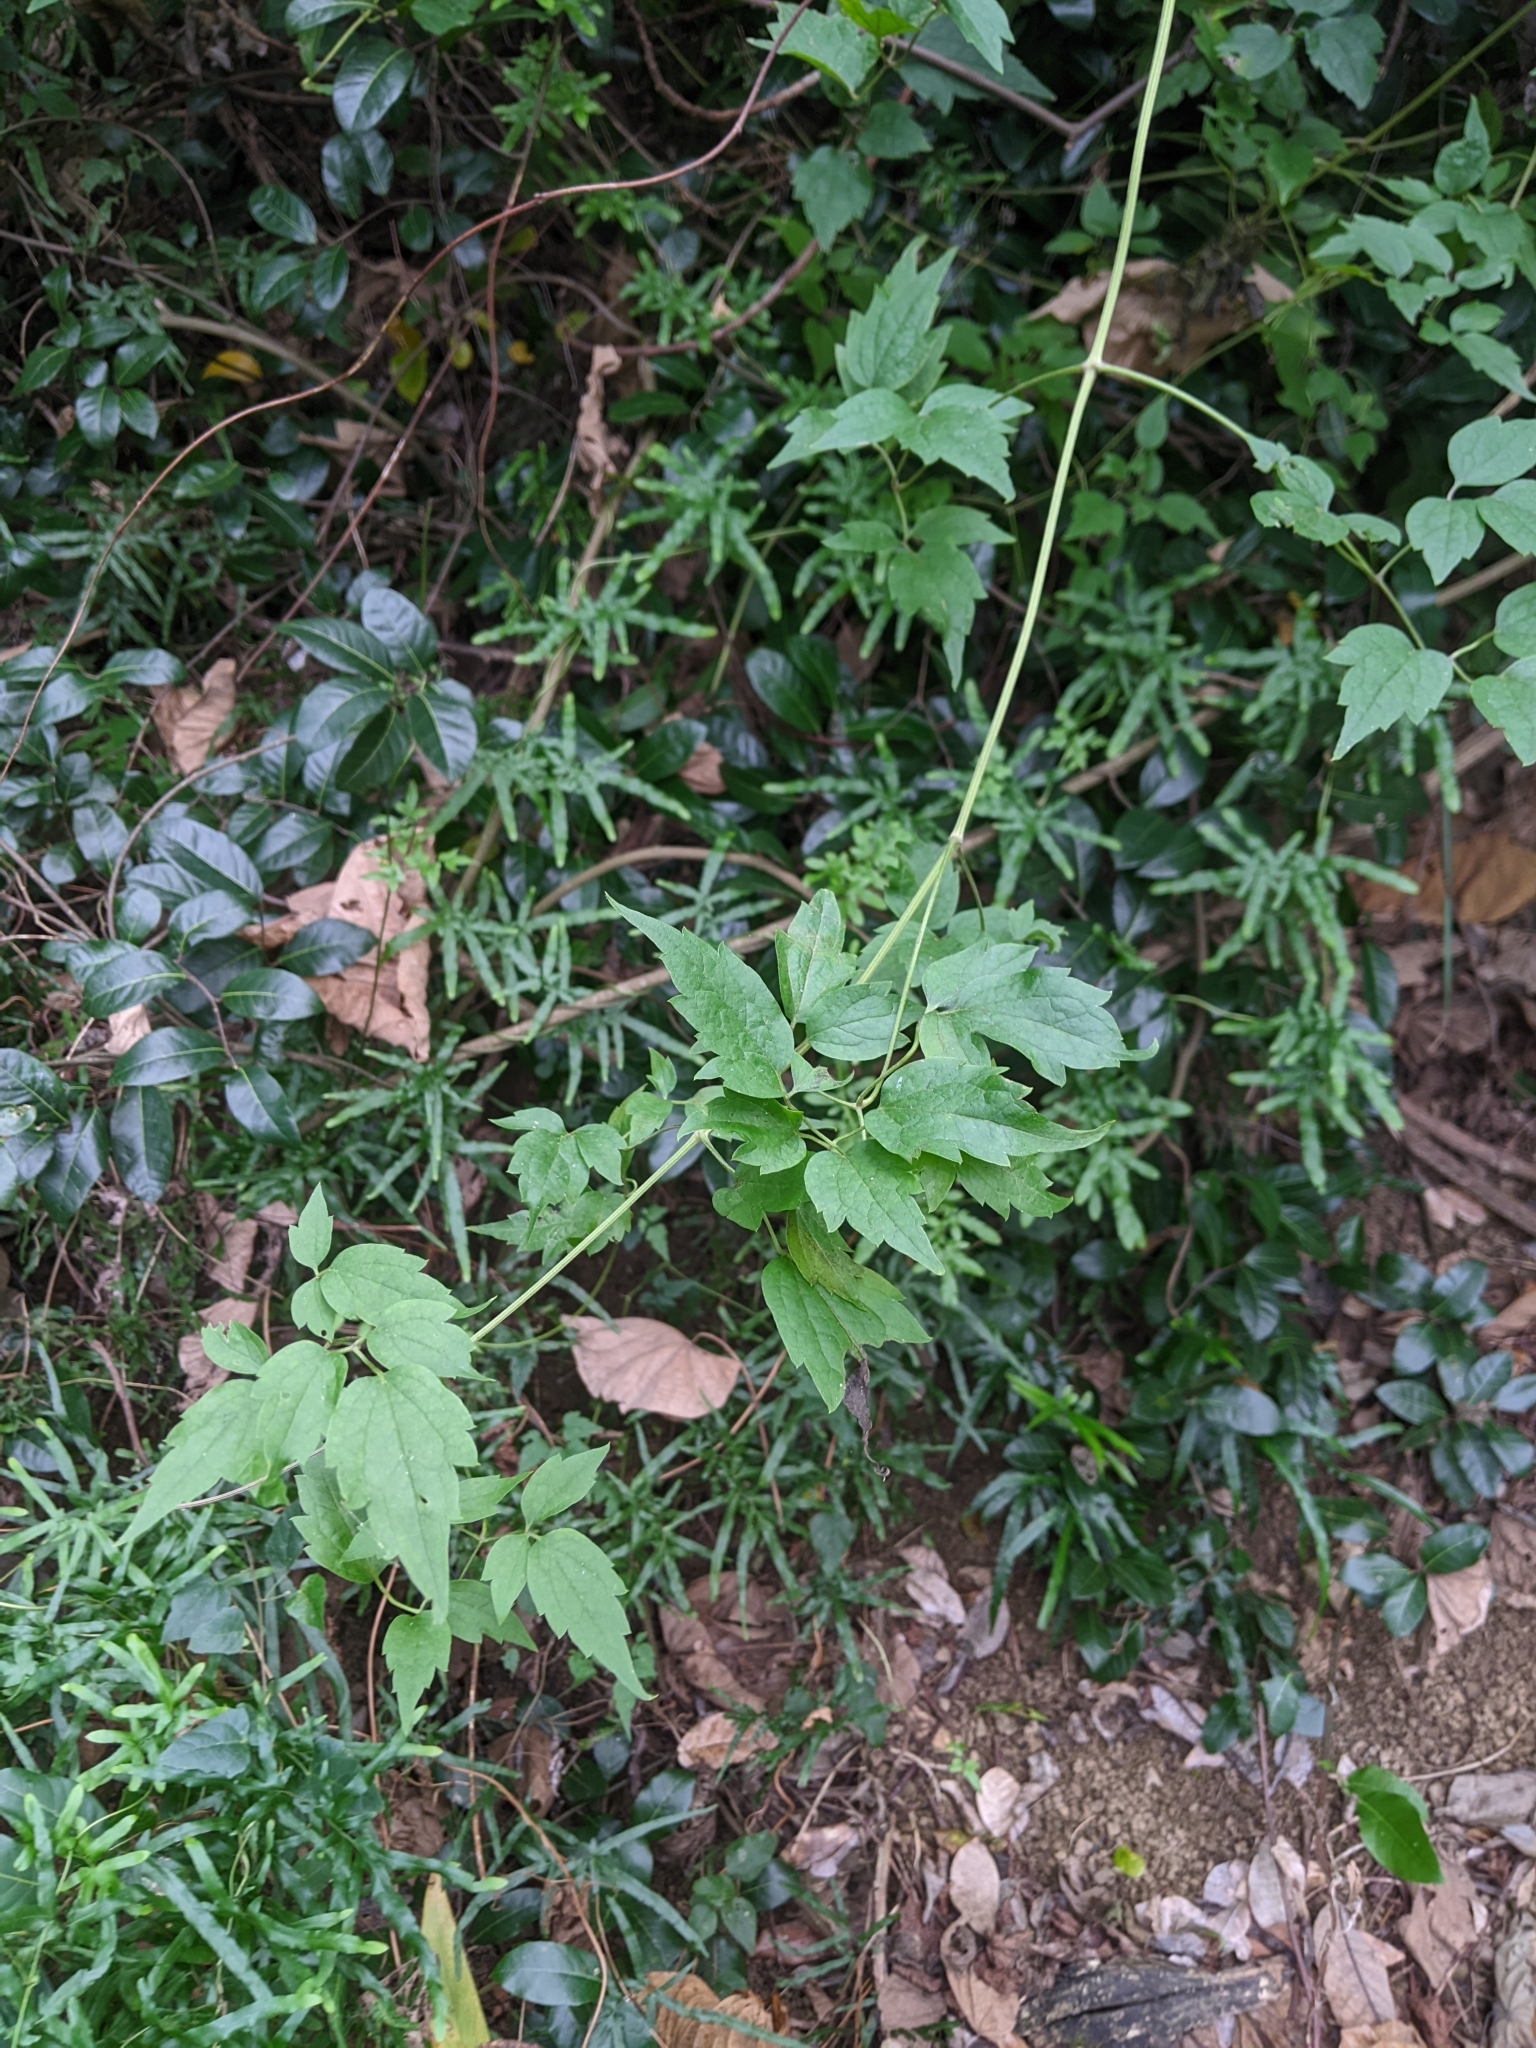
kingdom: Plantae
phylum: Tracheophyta
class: Magnoliopsida
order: Ranunculales
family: Ranunculaceae
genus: Clematis
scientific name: Clematis grata
